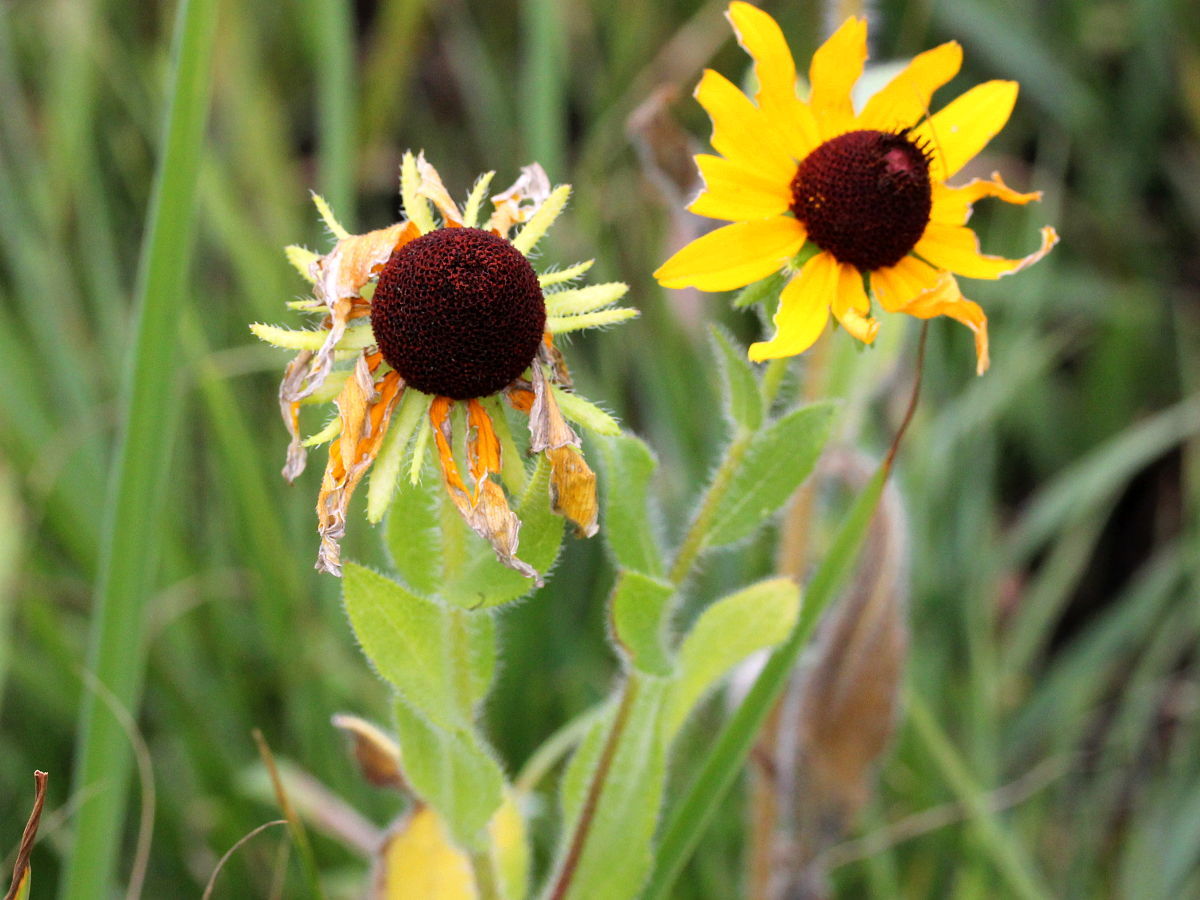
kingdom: Plantae
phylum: Tracheophyta
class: Magnoliopsida
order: Asterales
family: Asteraceae
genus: Rudbeckia
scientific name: Rudbeckia hirta
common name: Black-eyed-susan
